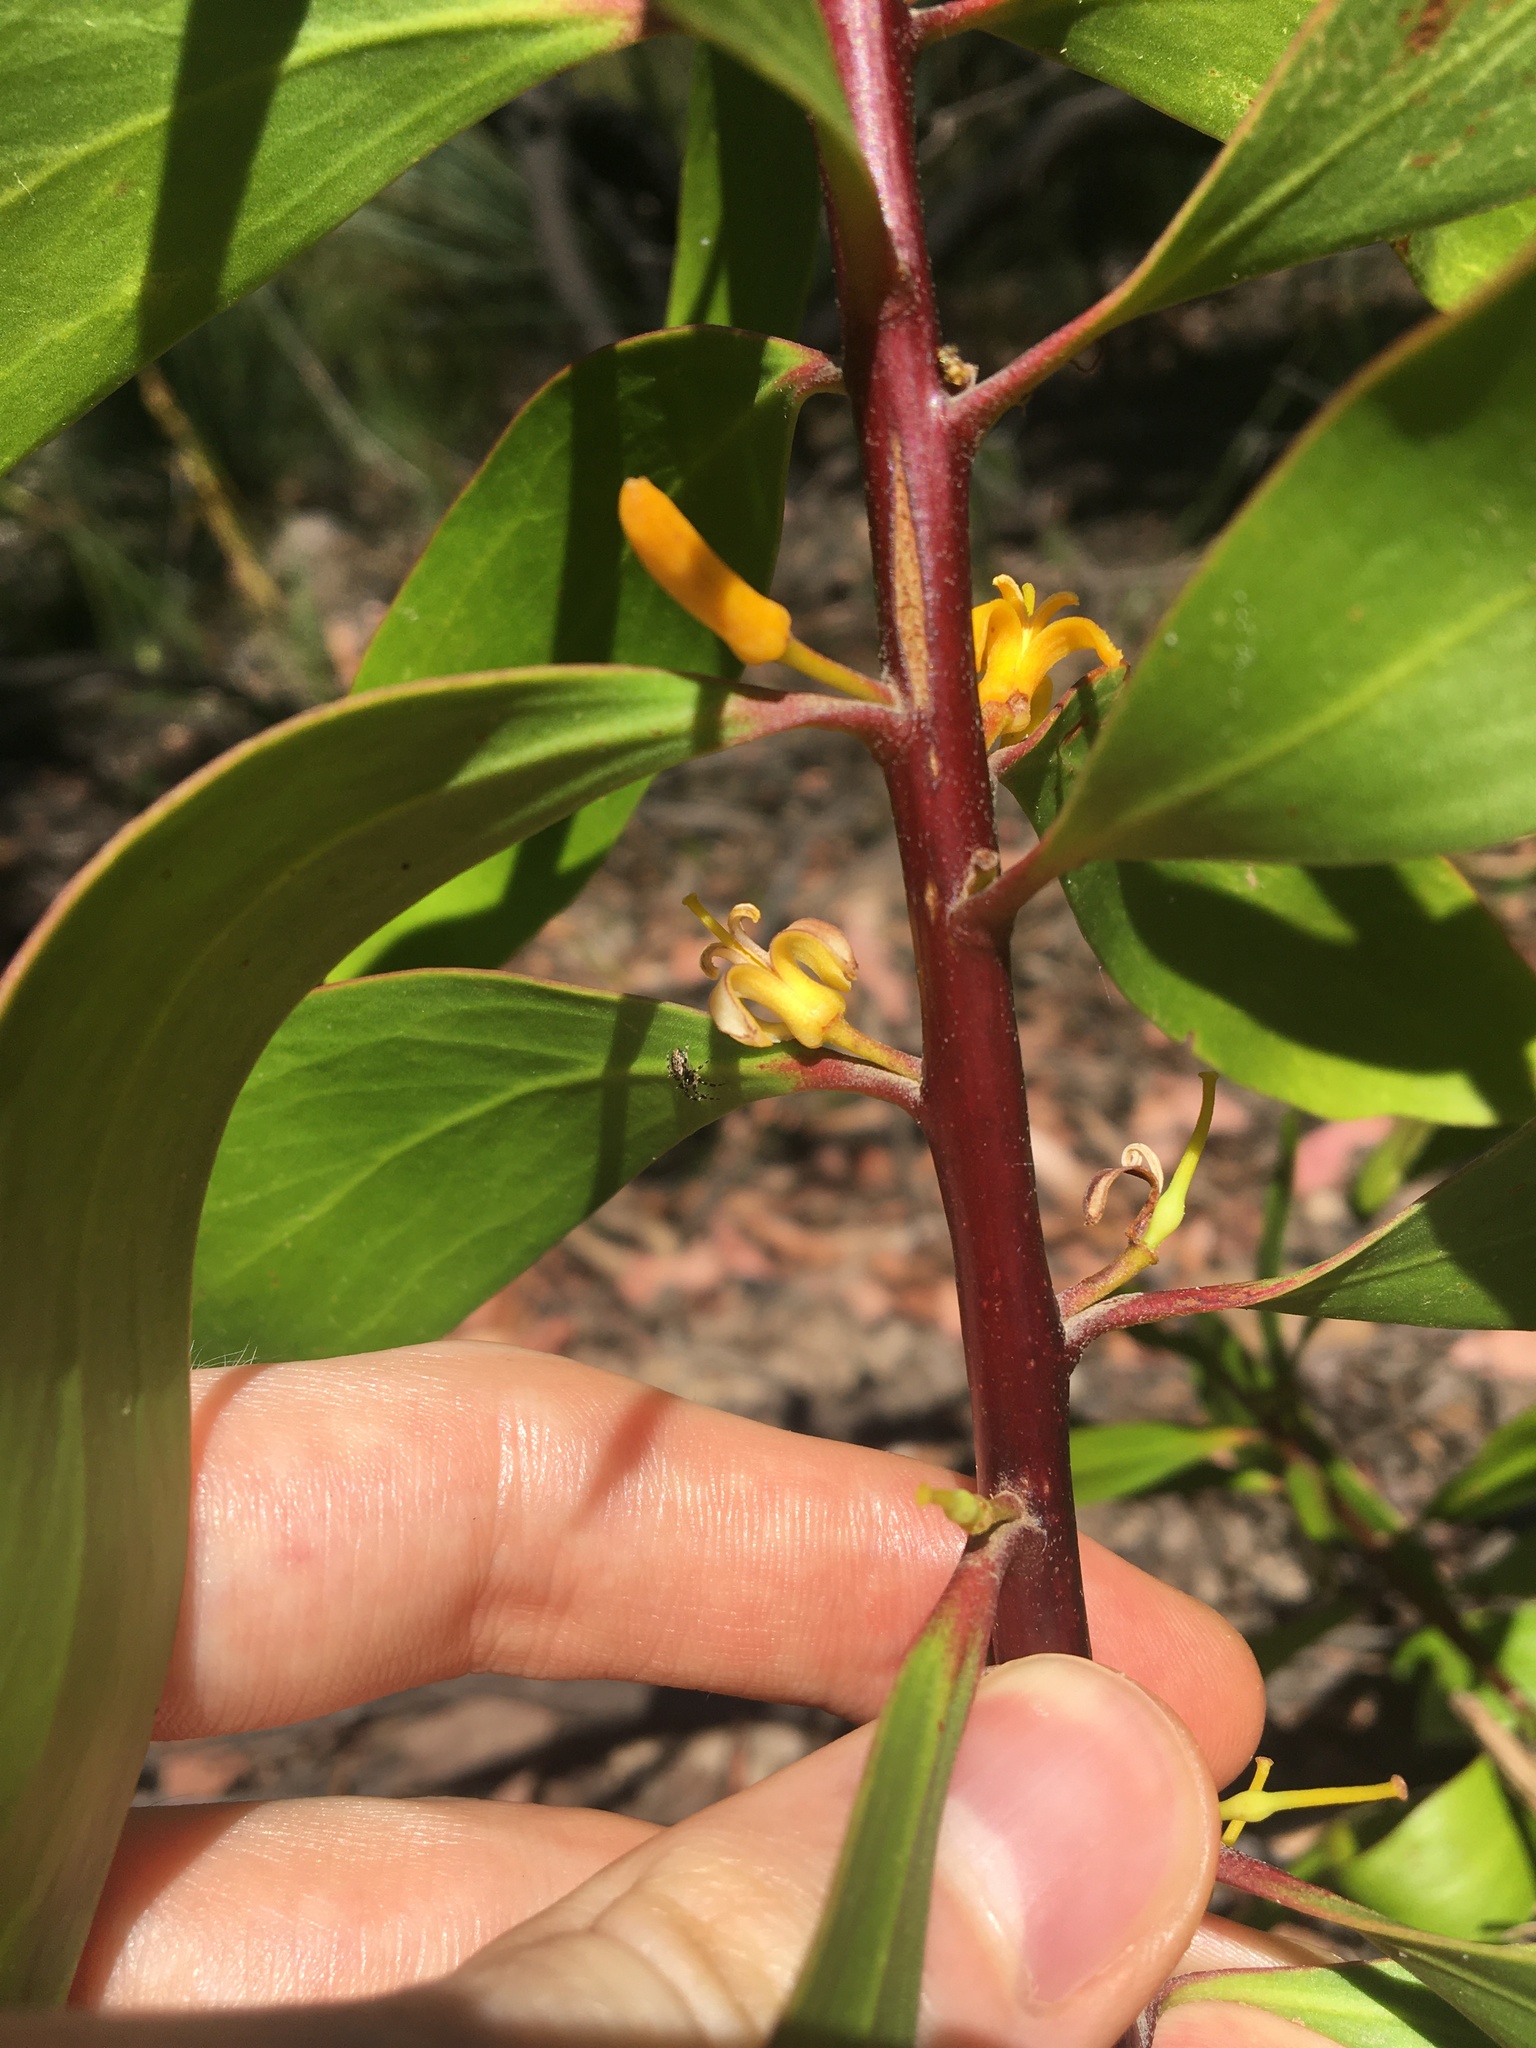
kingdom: Plantae
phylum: Tracheophyta
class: Magnoliopsida
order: Proteales
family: Proteaceae
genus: Persoonia
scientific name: Persoonia levis
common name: Smooth geebung
